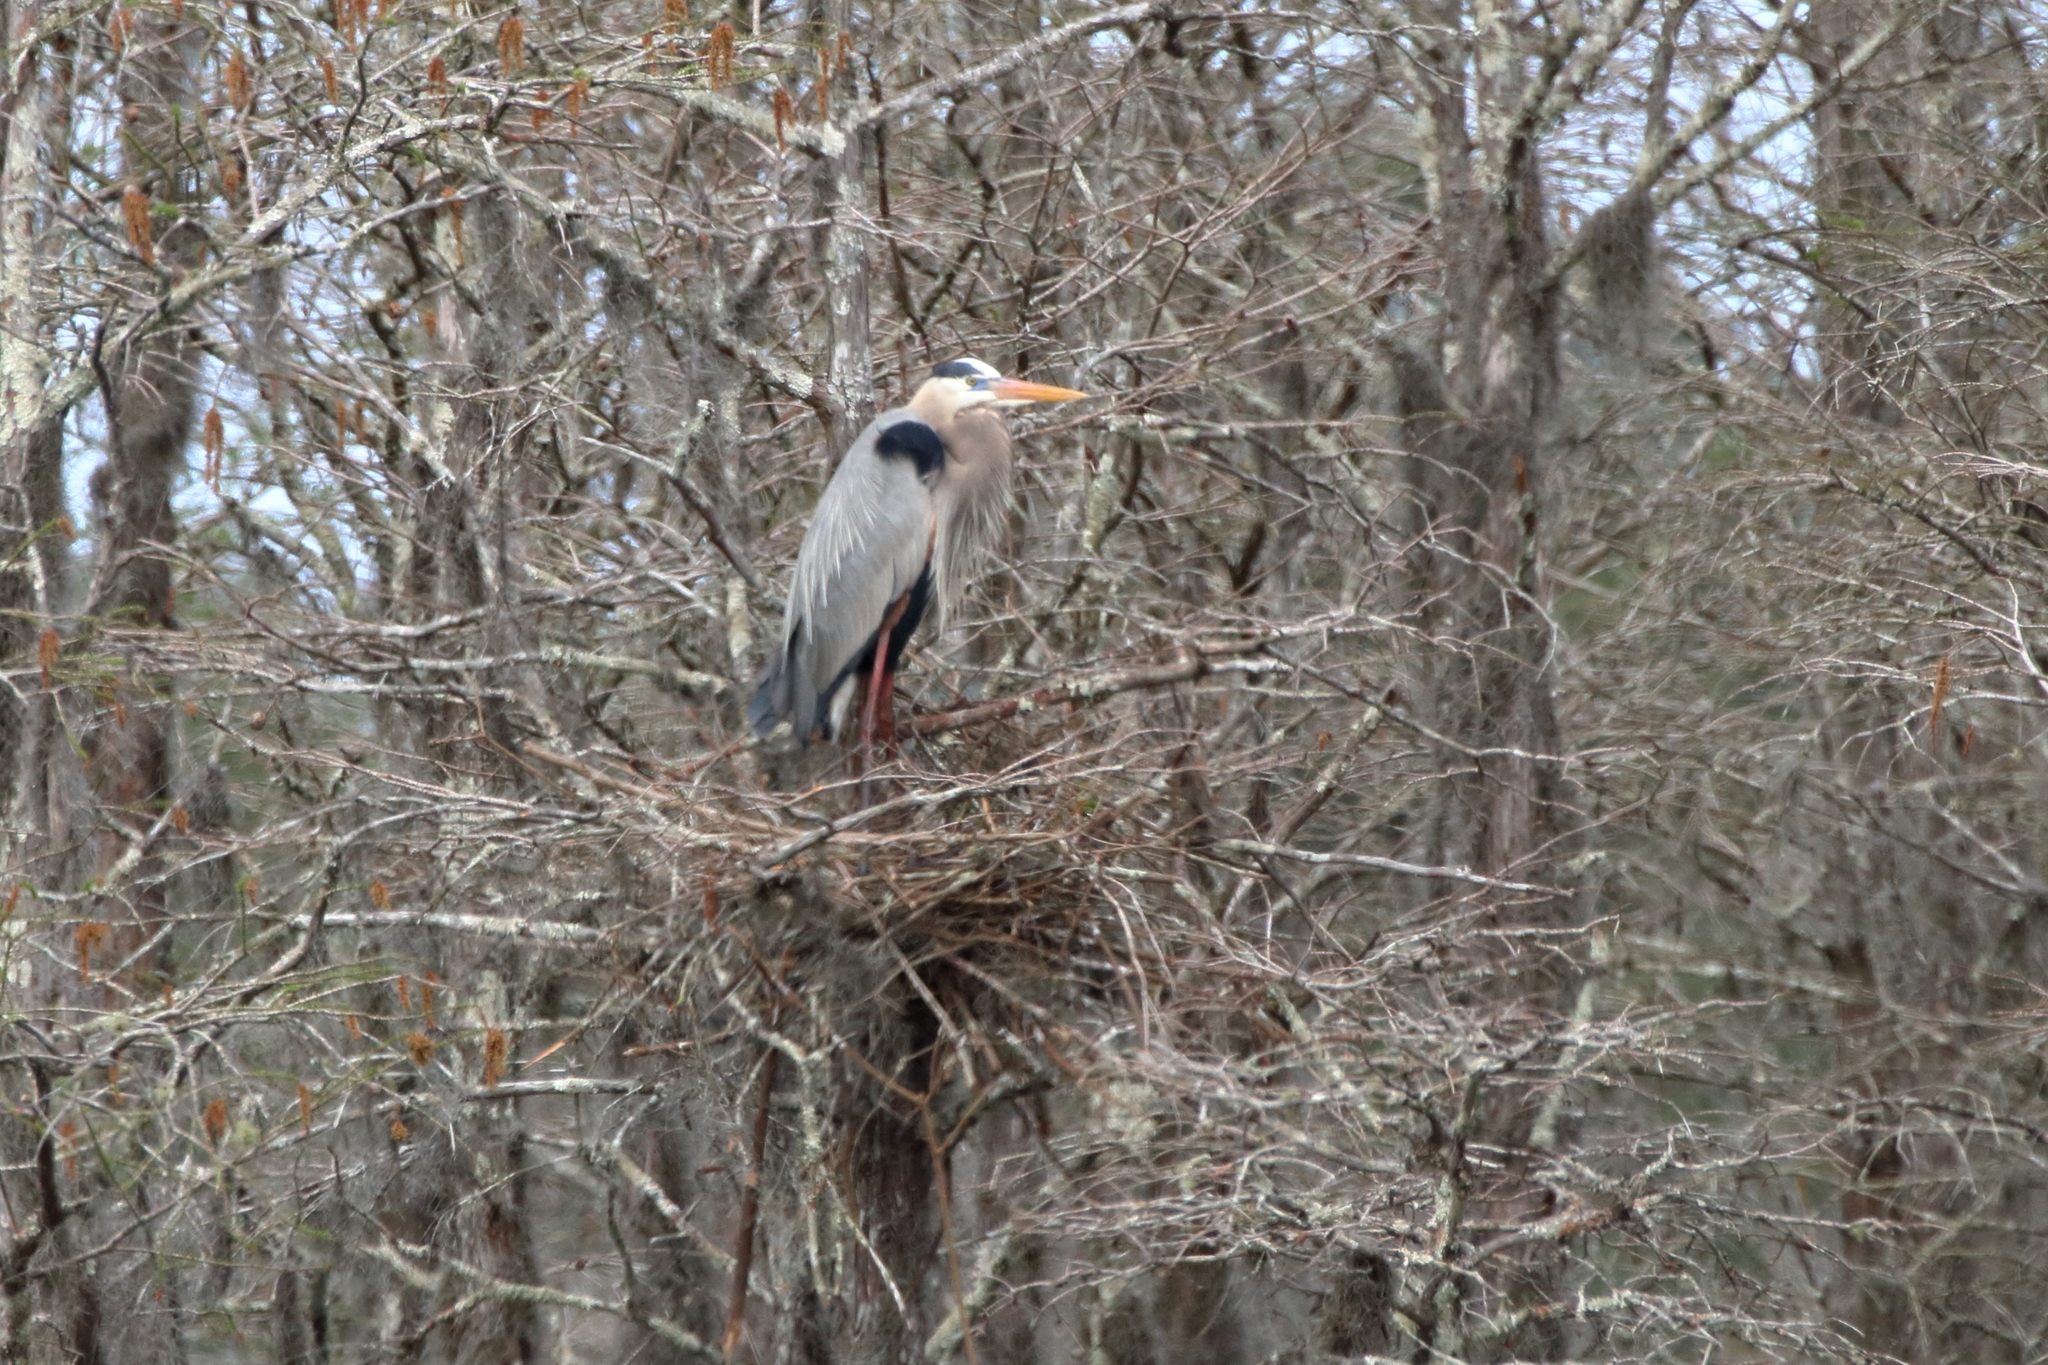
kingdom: Animalia
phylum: Chordata
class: Aves
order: Pelecaniformes
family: Ardeidae
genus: Ardea
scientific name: Ardea herodias
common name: Great blue heron
